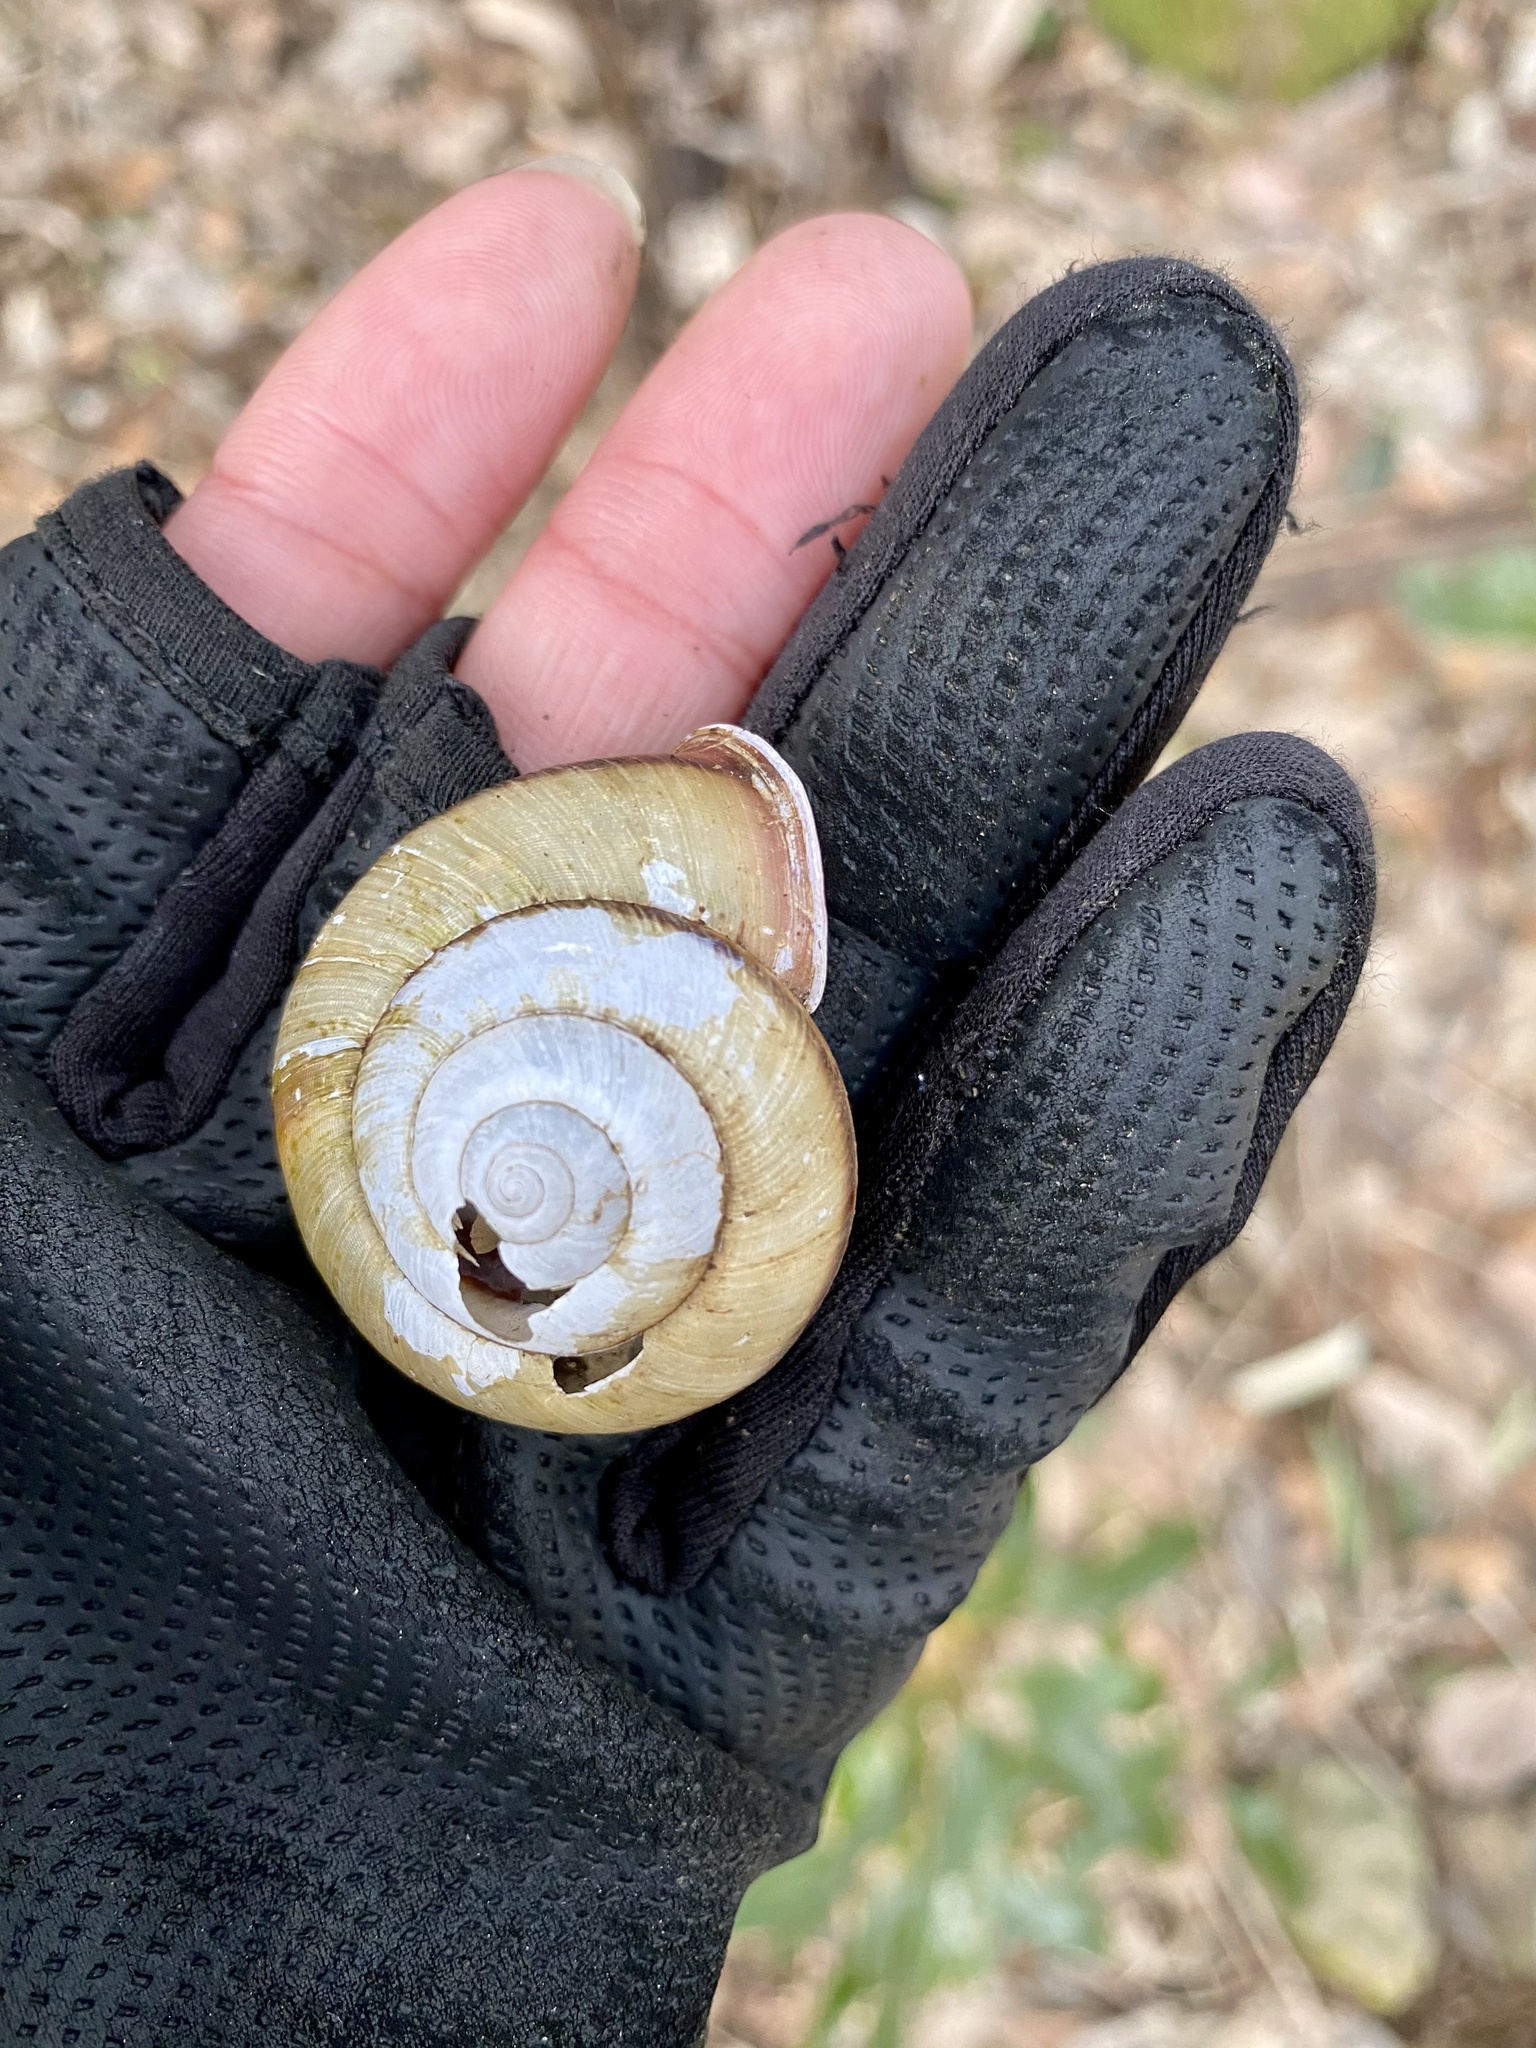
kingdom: Animalia
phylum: Mollusca
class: Gastropoda
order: Stylommatophora
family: Camaenidae
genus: Euhadra
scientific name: Euhadra amaliae
